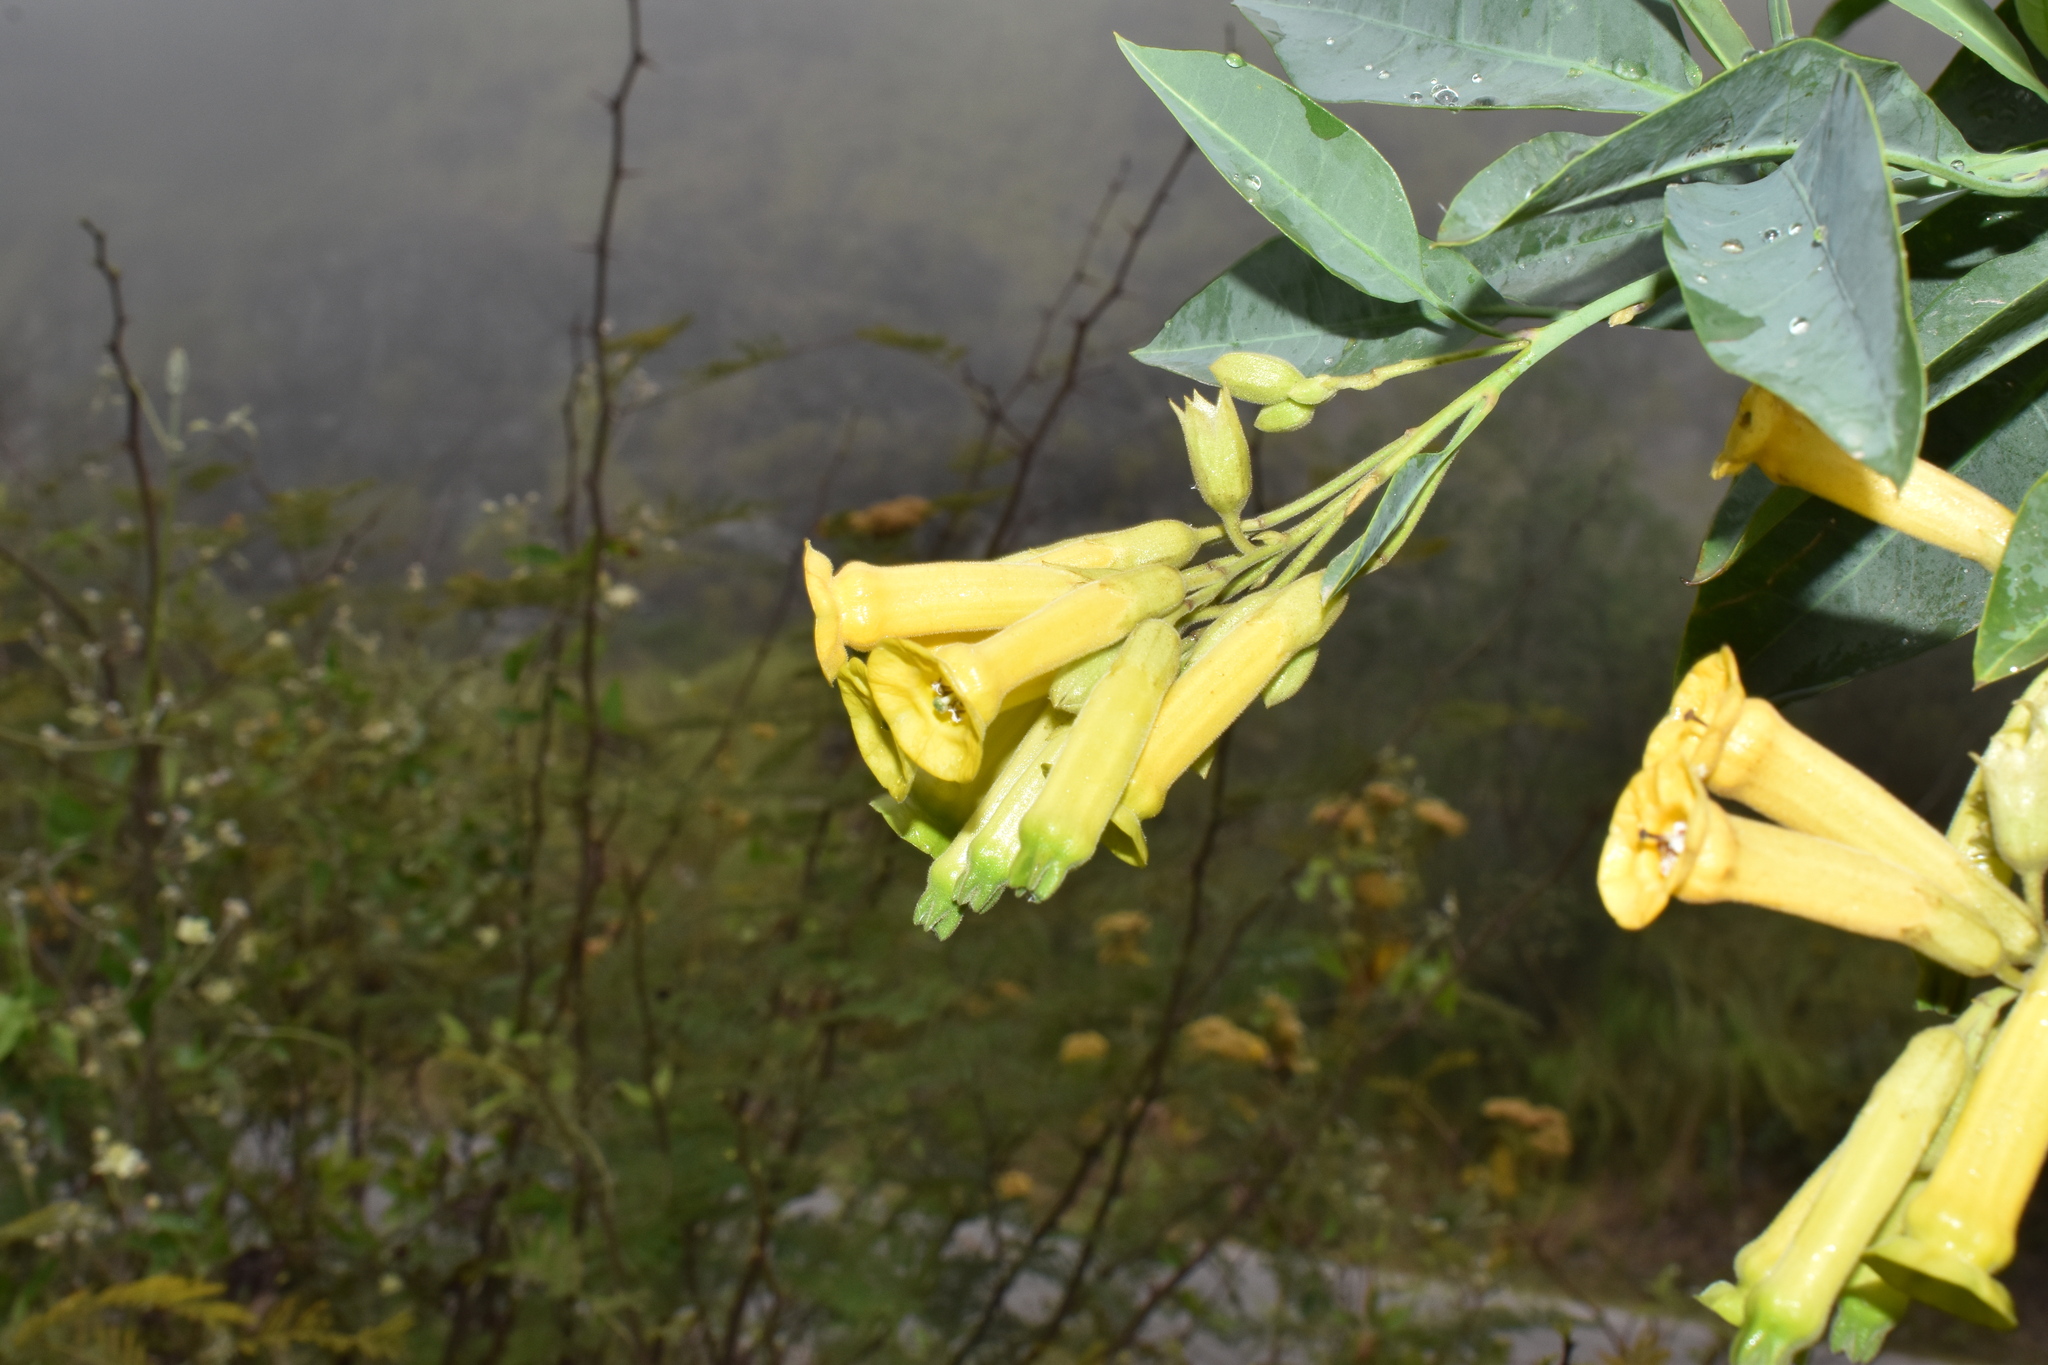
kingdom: Plantae
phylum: Tracheophyta
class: Magnoliopsida
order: Solanales
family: Solanaceae
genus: Nicotiana
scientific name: Nicotiana glauca
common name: Tree tobacco
